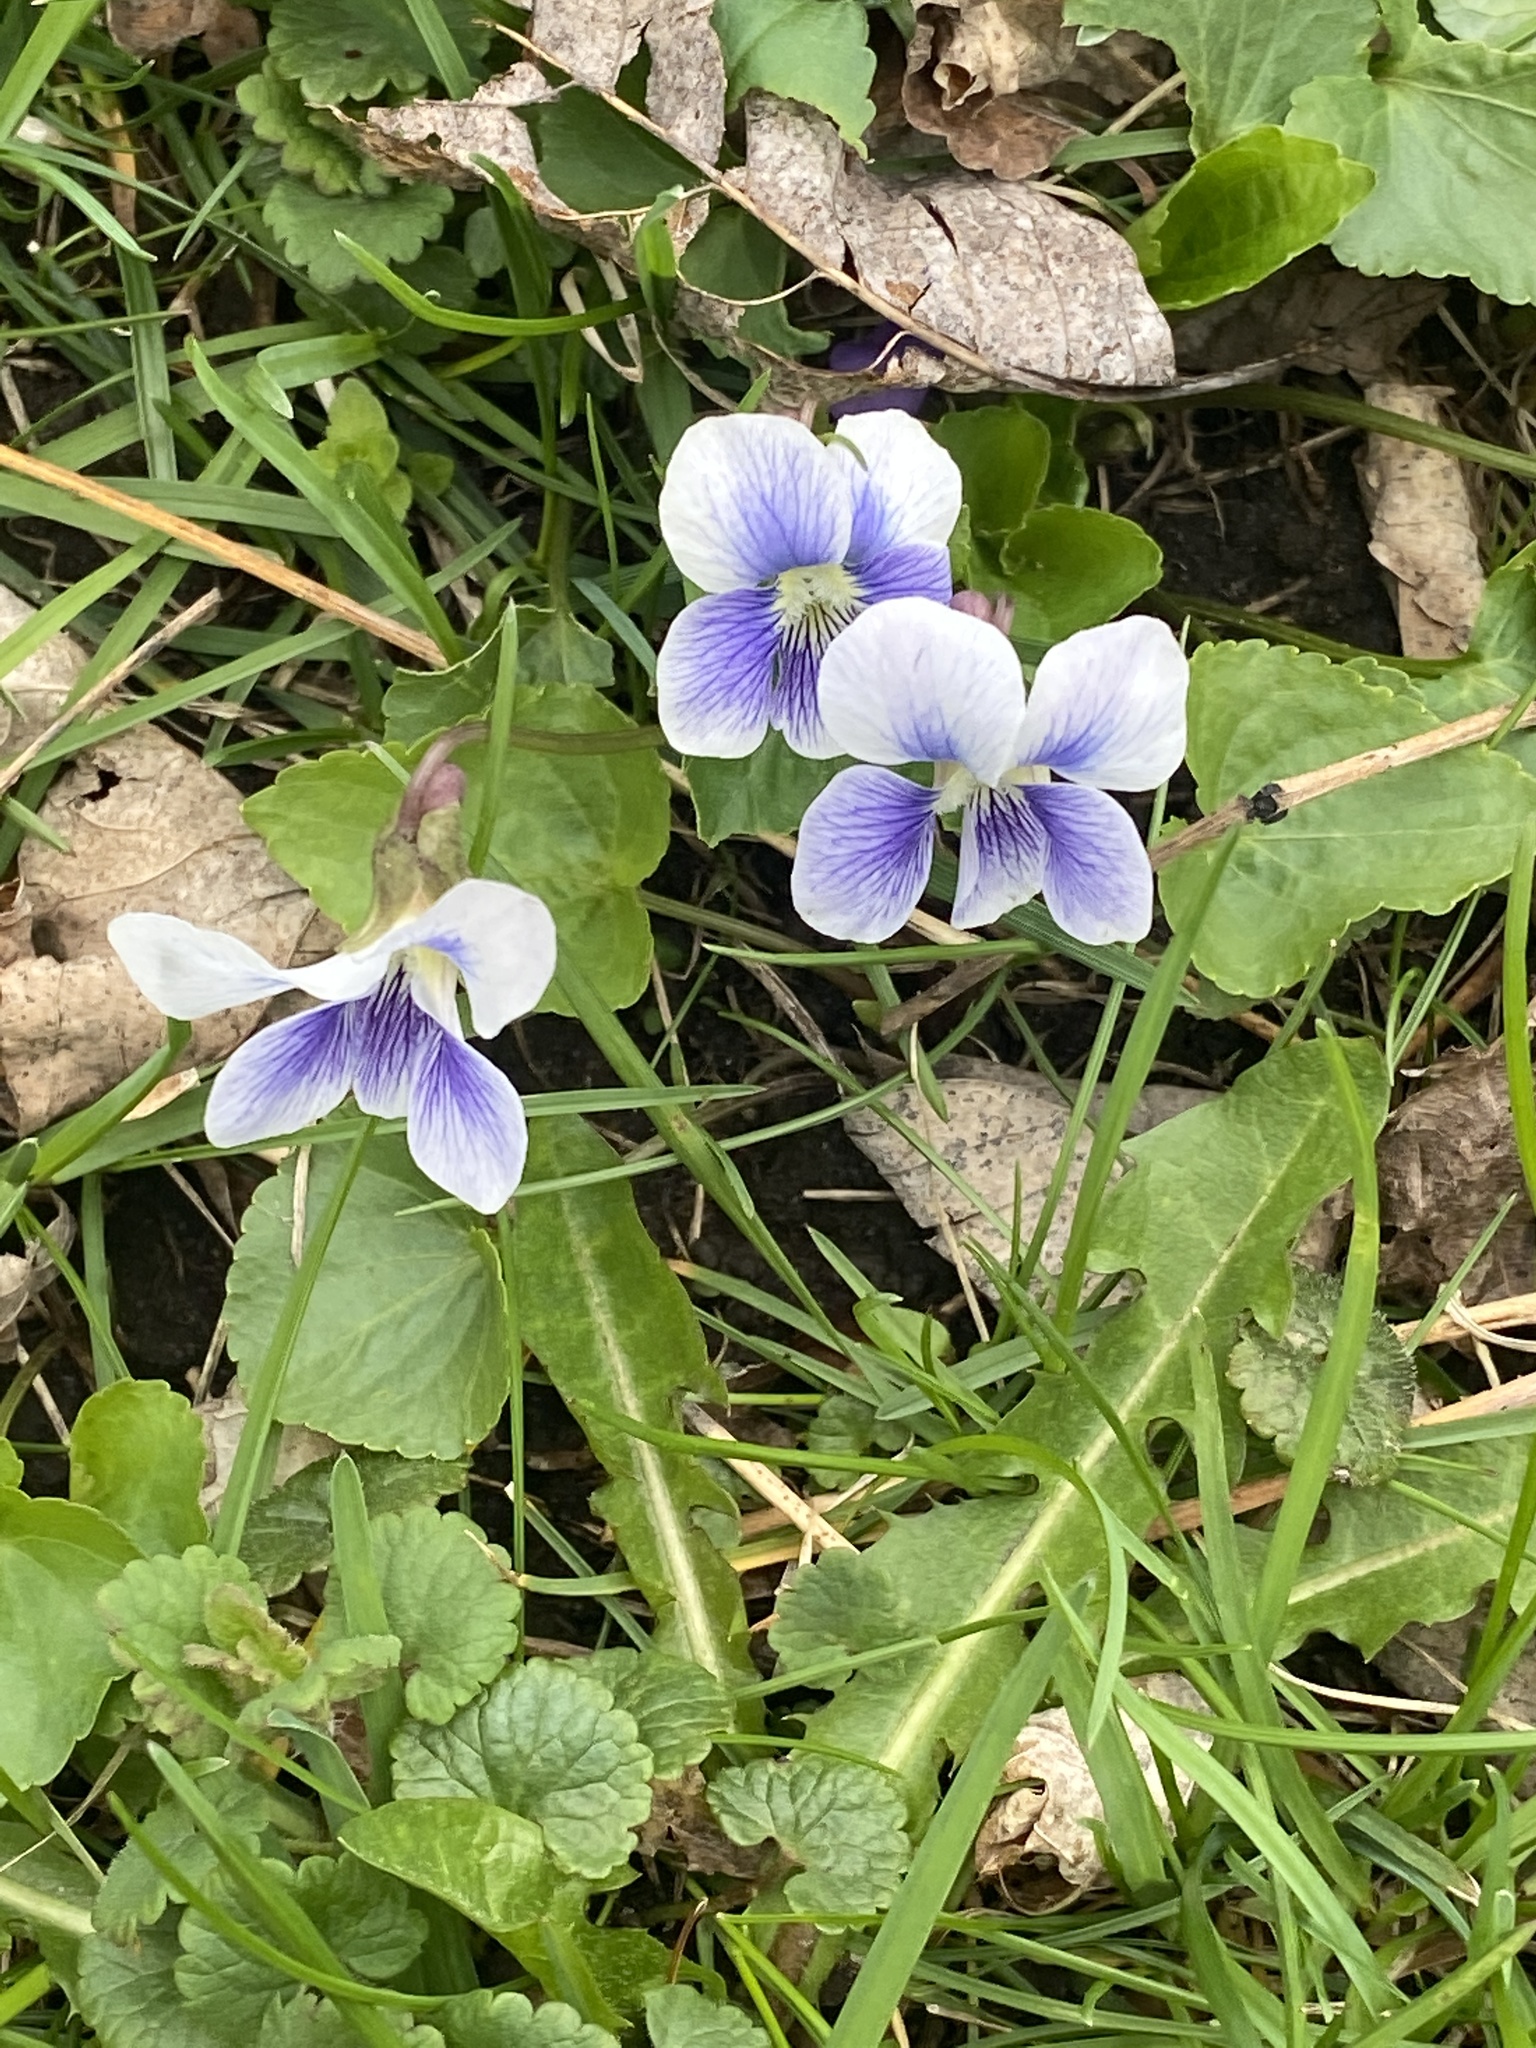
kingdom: Plantae
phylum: Tracheophyta
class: Magnoliopsida
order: Malpighiales
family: Violaceae
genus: Viola
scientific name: Viola sororia
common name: Dooryard violet
